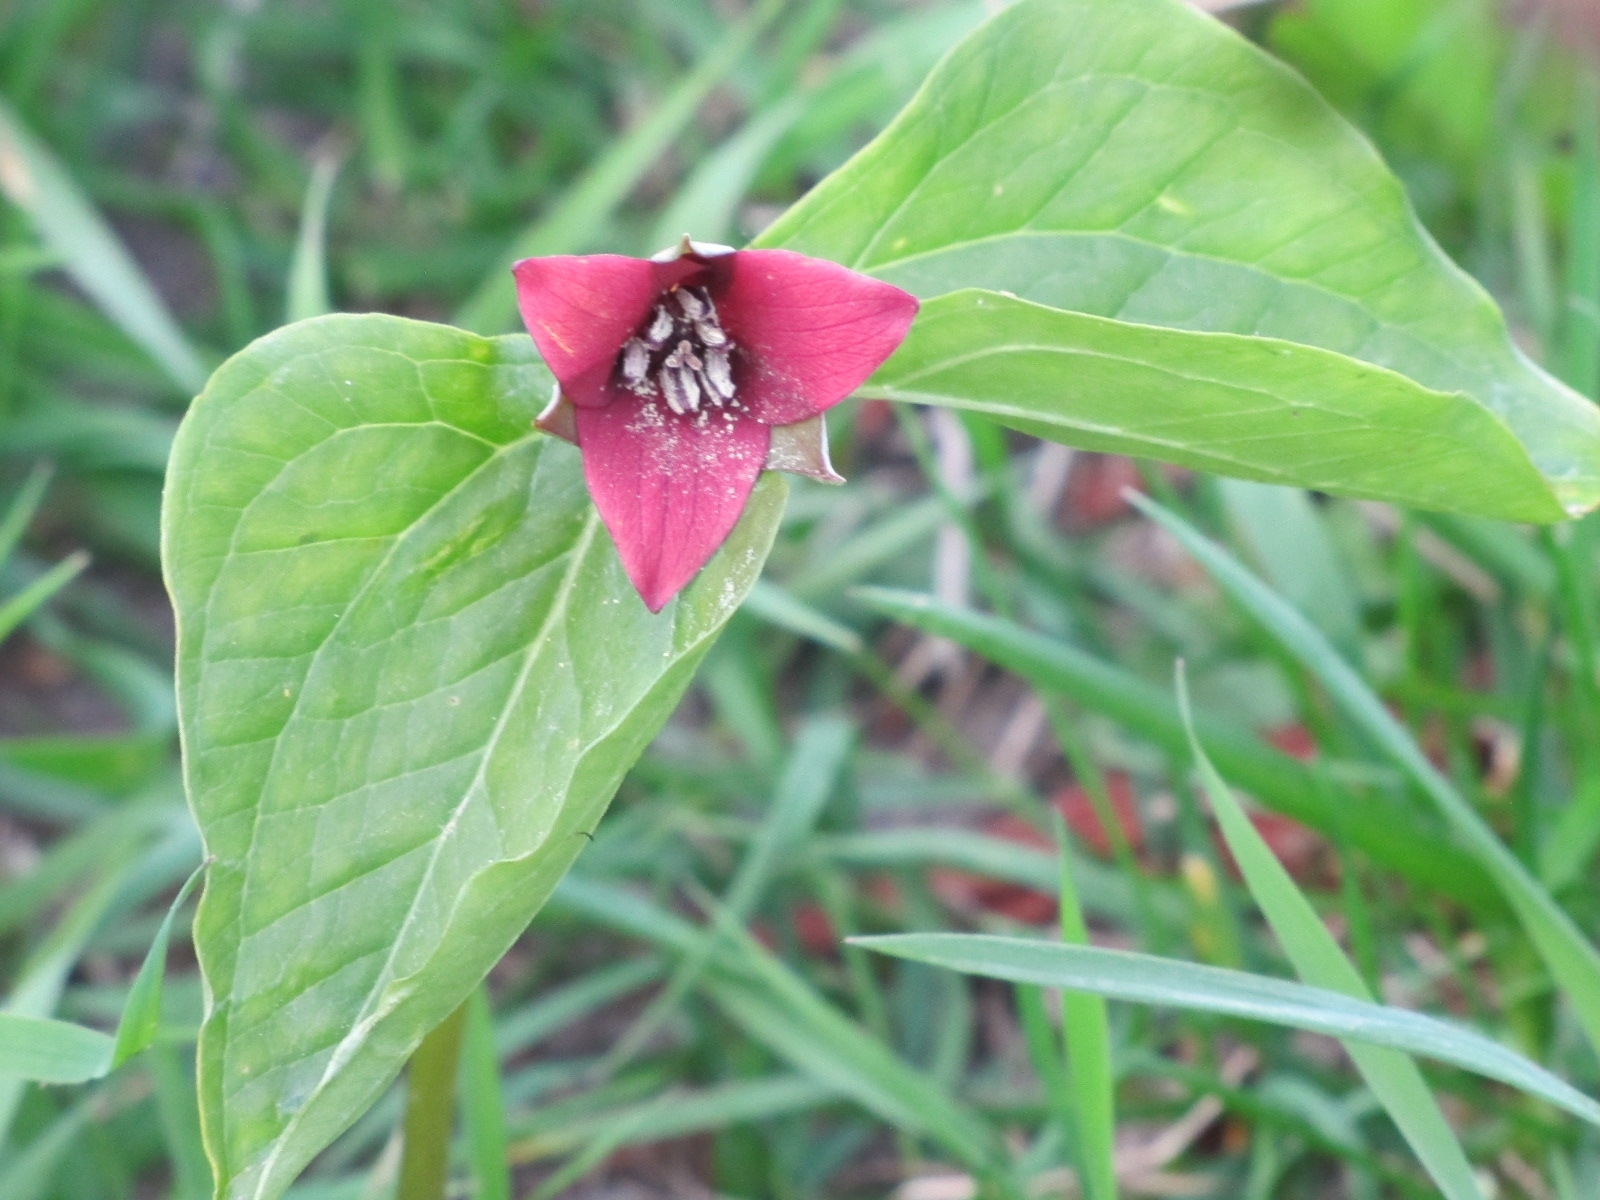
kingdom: Plantae
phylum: Tracheophyta
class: Liliopsida
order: Liliales
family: Melanthiaceae
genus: Trillium
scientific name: Trillium erectum
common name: Purple trillium
